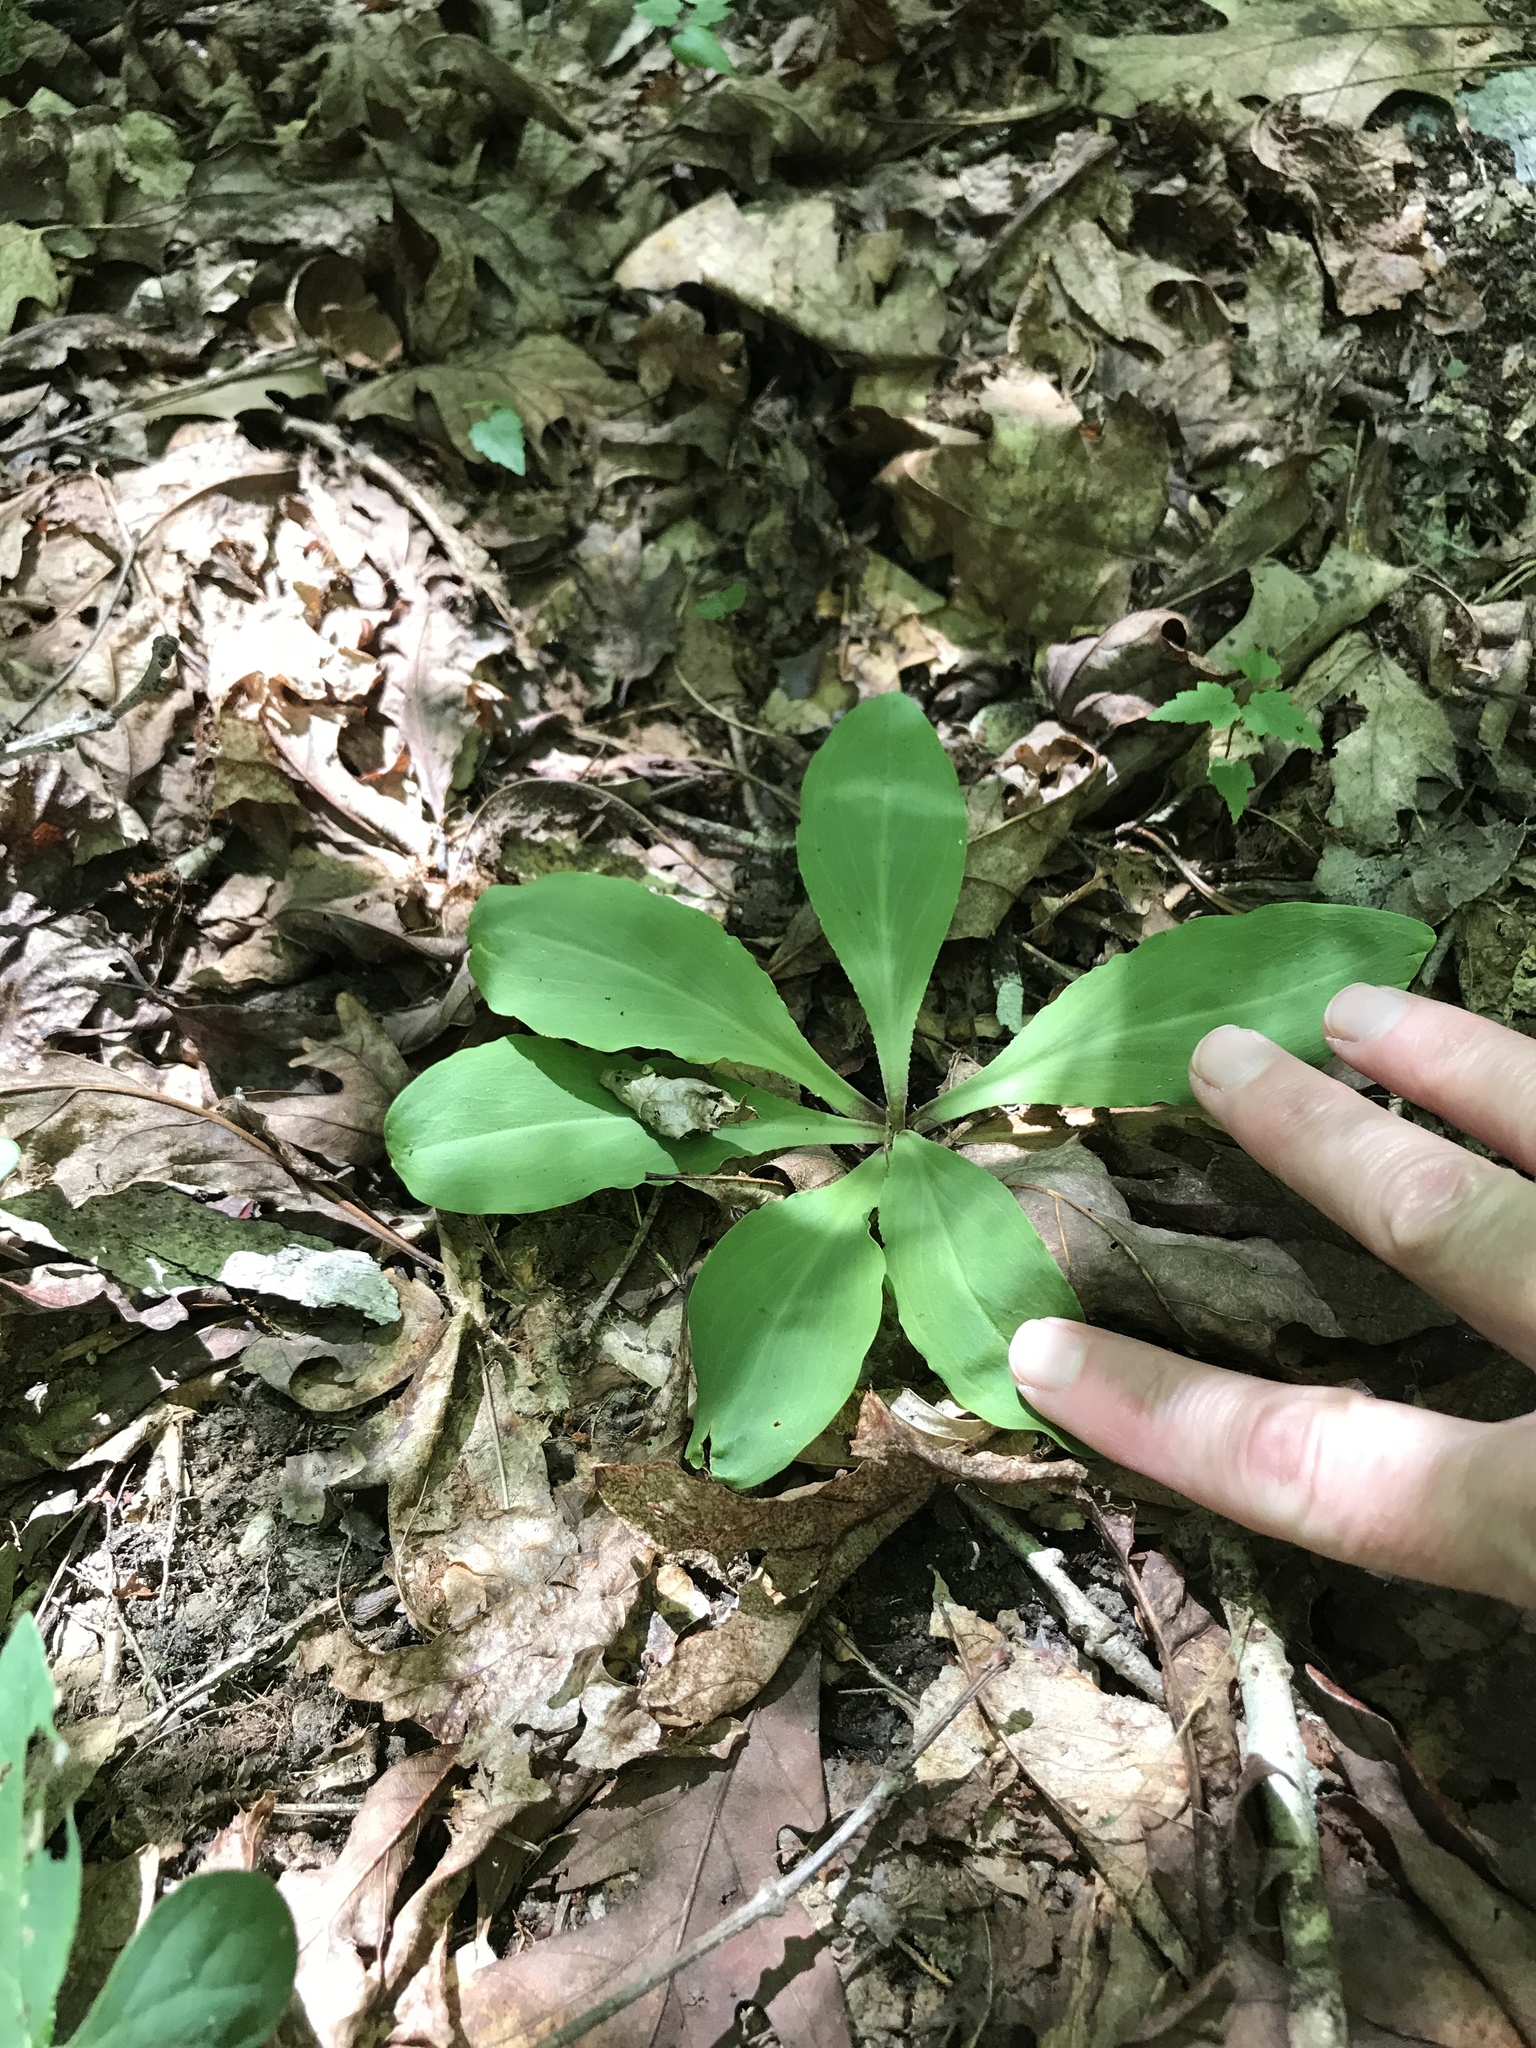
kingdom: Plantae
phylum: Tracheophyta
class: Liliopsida
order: Liliales
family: Melanthiaceae
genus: Chamaelirium
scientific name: Chamaelirium luteum
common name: Fairy-wand
